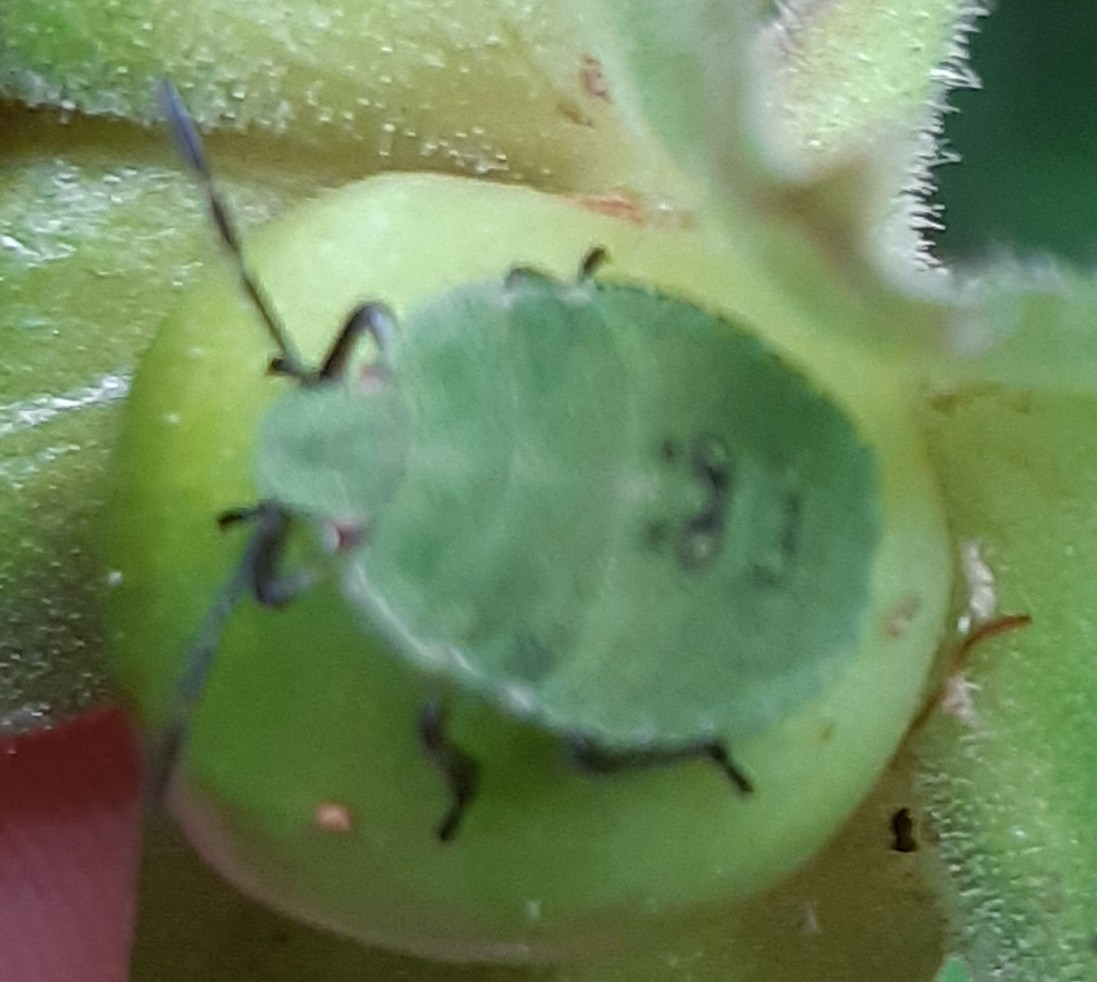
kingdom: Animalia
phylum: Arthropoda
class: Insecta
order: Hemiptera
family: Pentatomidae
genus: Palomena
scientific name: Palomena prasina
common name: Green shieldbug
